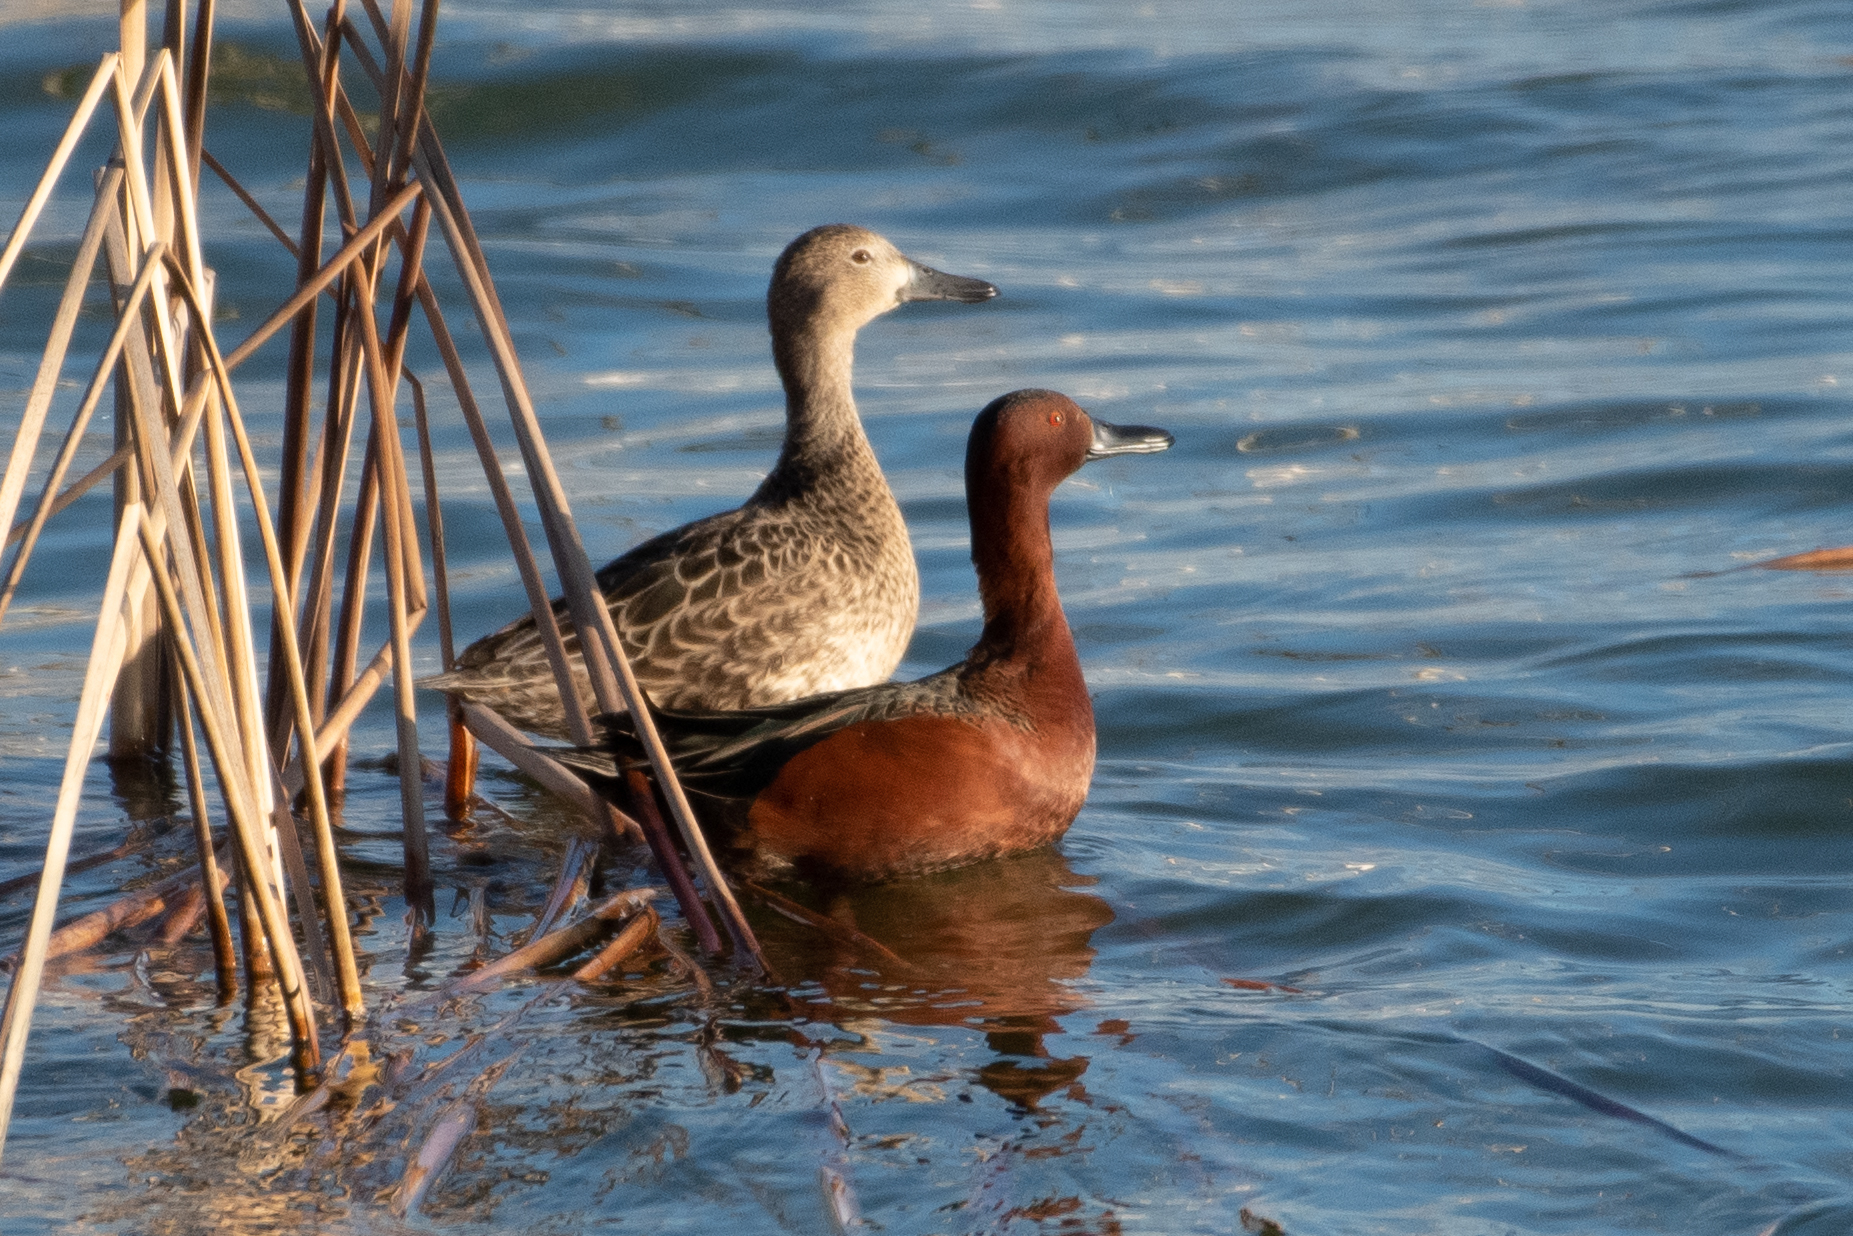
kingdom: Animalia
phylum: Chordata
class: Aves
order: Anseriformes
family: Anatidae
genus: Spatula
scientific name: Spatula cyanoptera
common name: Cinnamon teal
